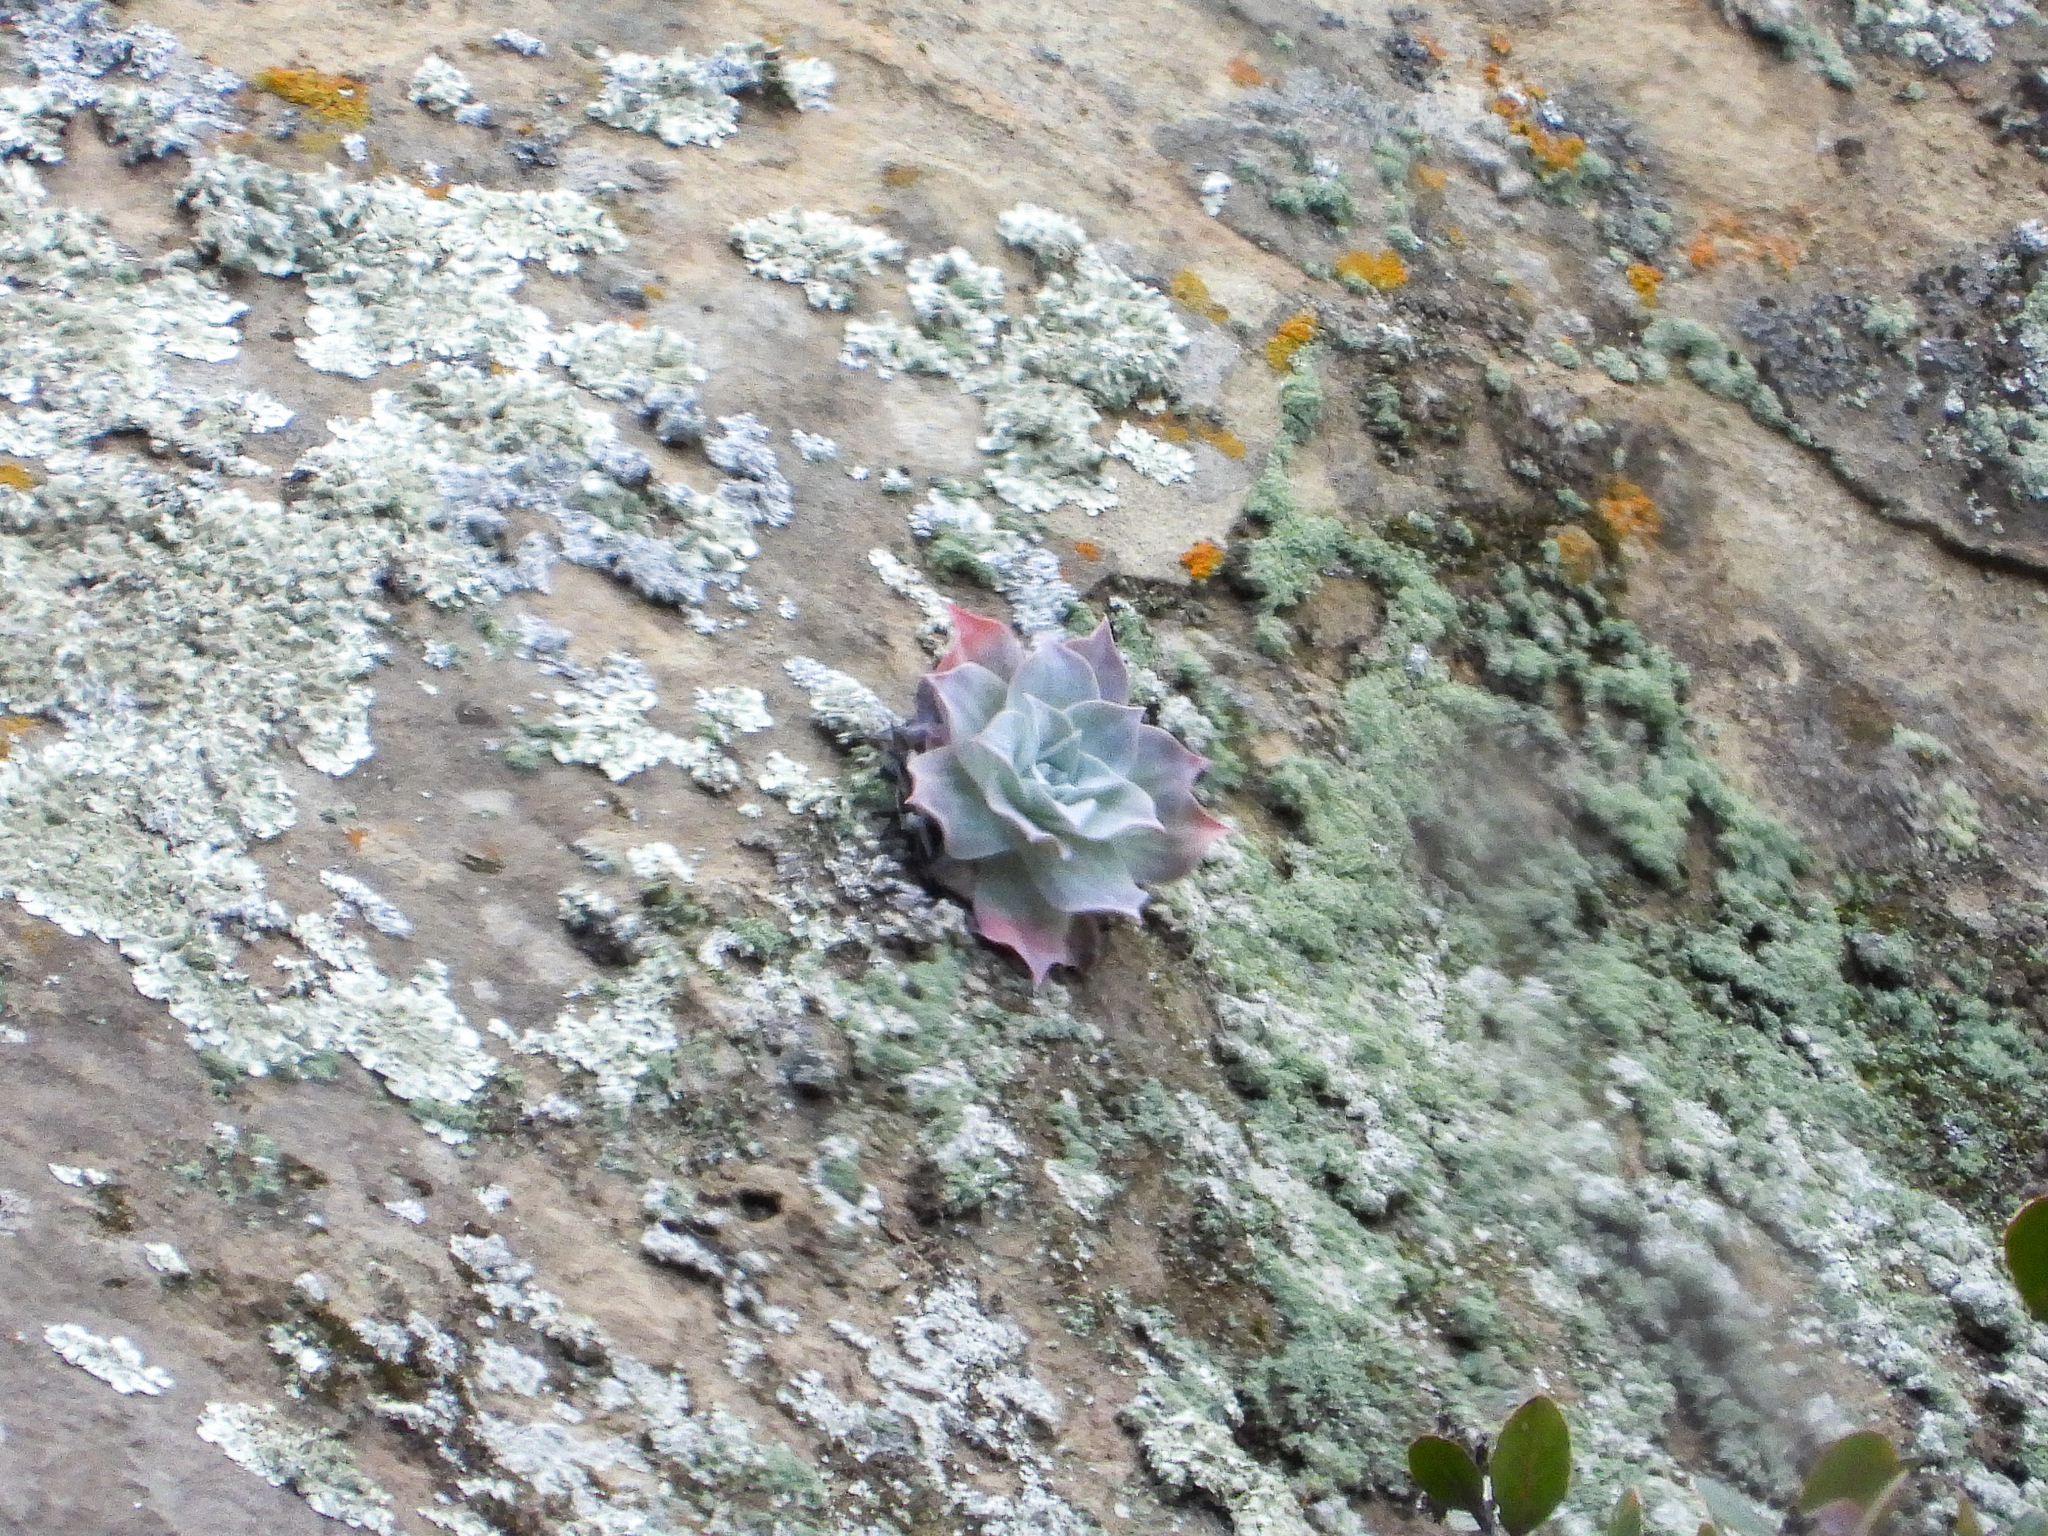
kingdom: Plantae
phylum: Tracheophyta
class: Magnoliopsida
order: Saxifragales
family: Crassulaceae
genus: Dudleya
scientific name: Dudleya pulverulenta
